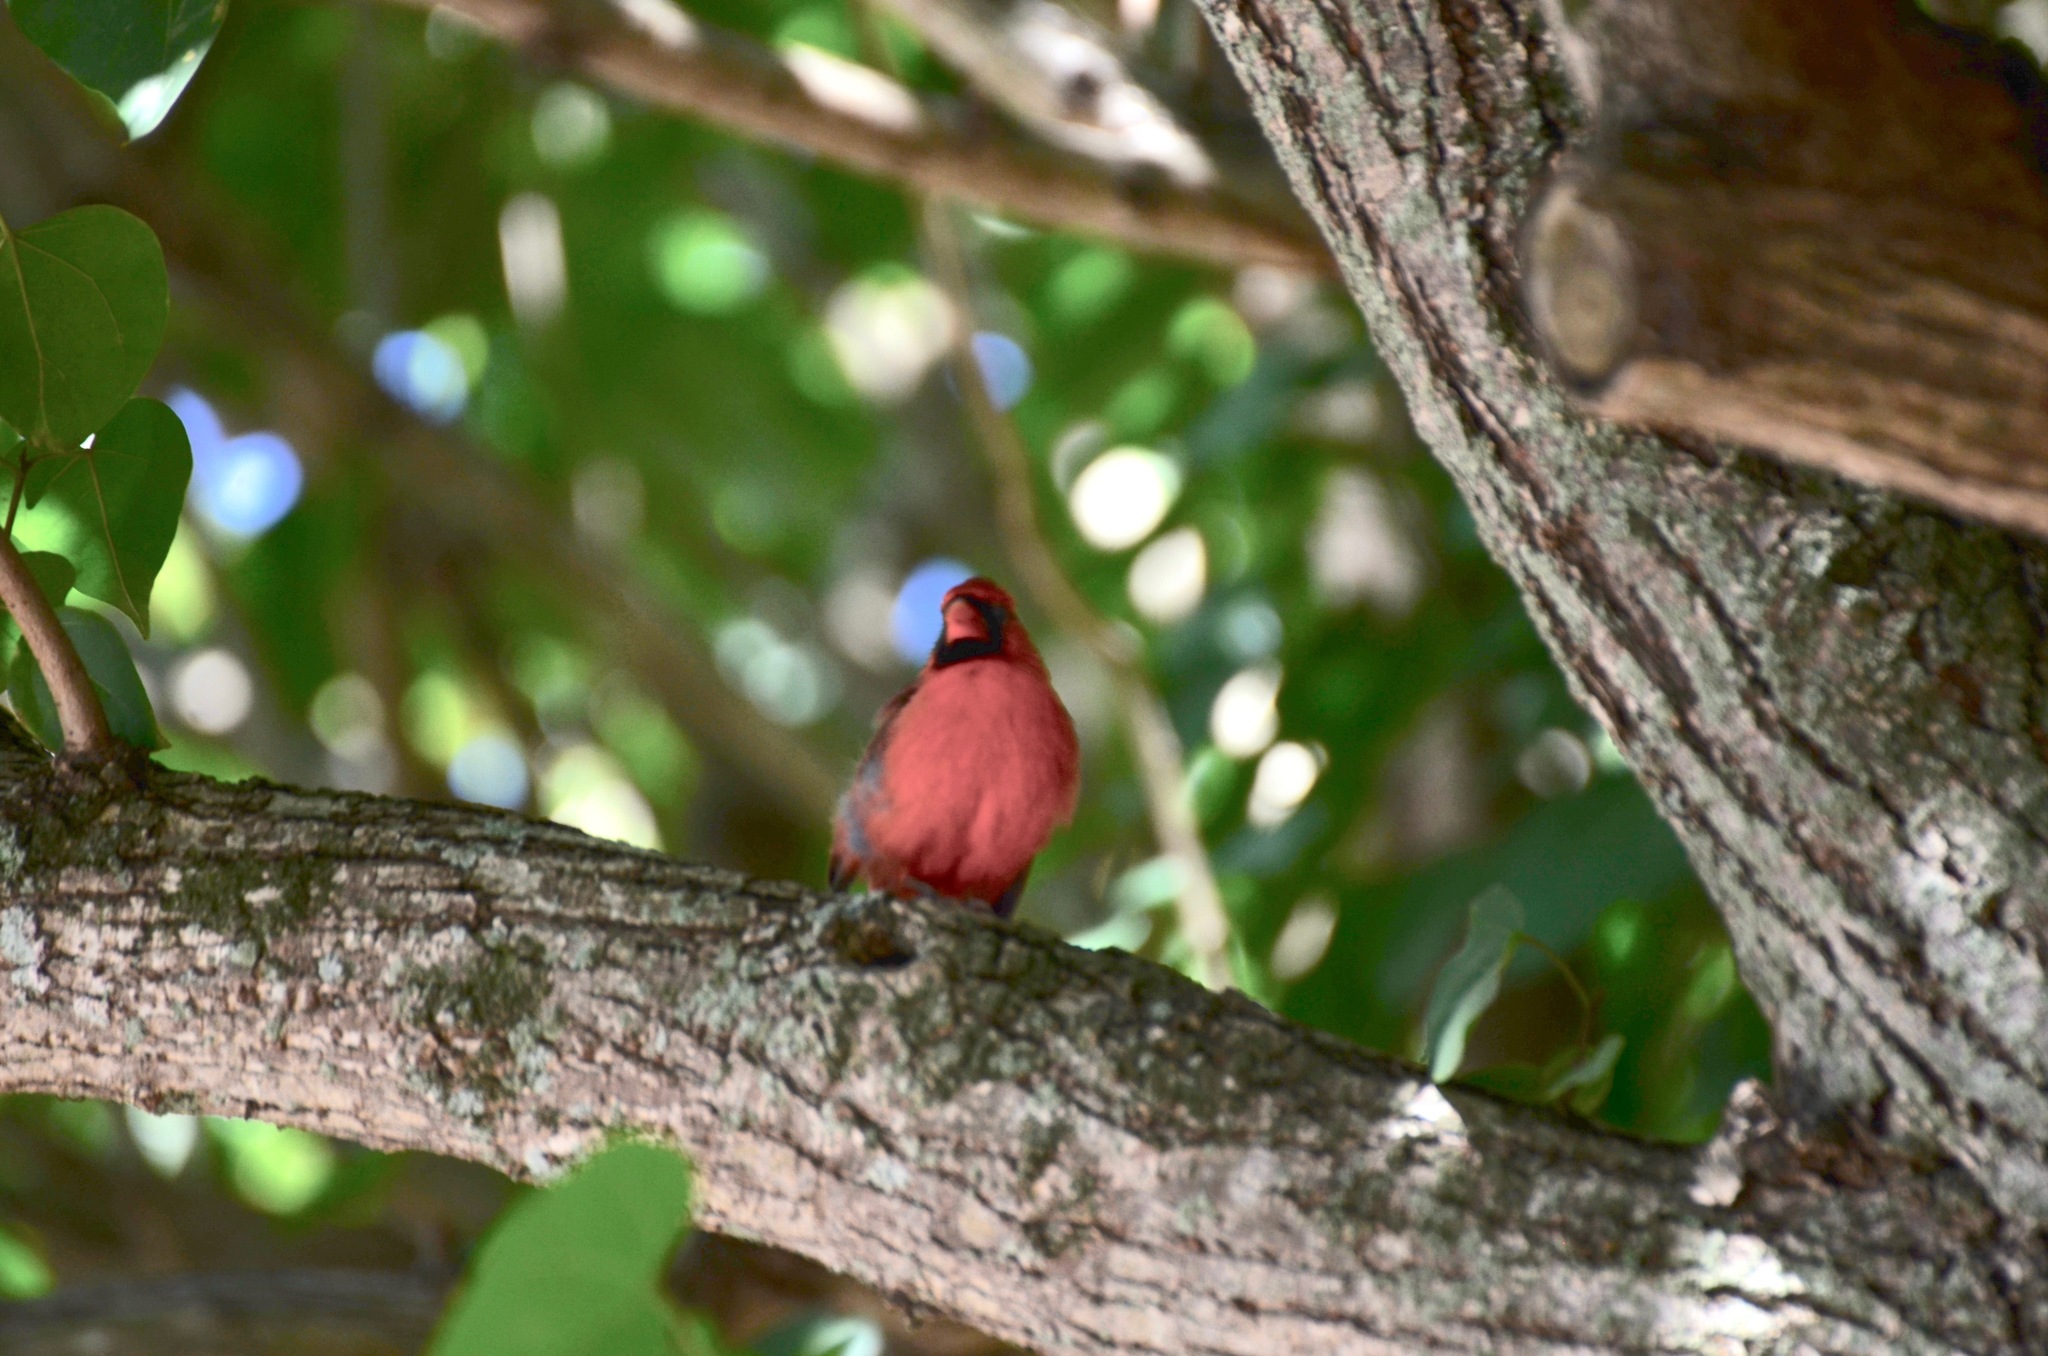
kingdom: Animalia
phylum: Chordata
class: Aves
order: Passeriformes
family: Cardinalidae
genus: Cardinalis
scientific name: Cardinalis cardinalis
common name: Northern cardinal
